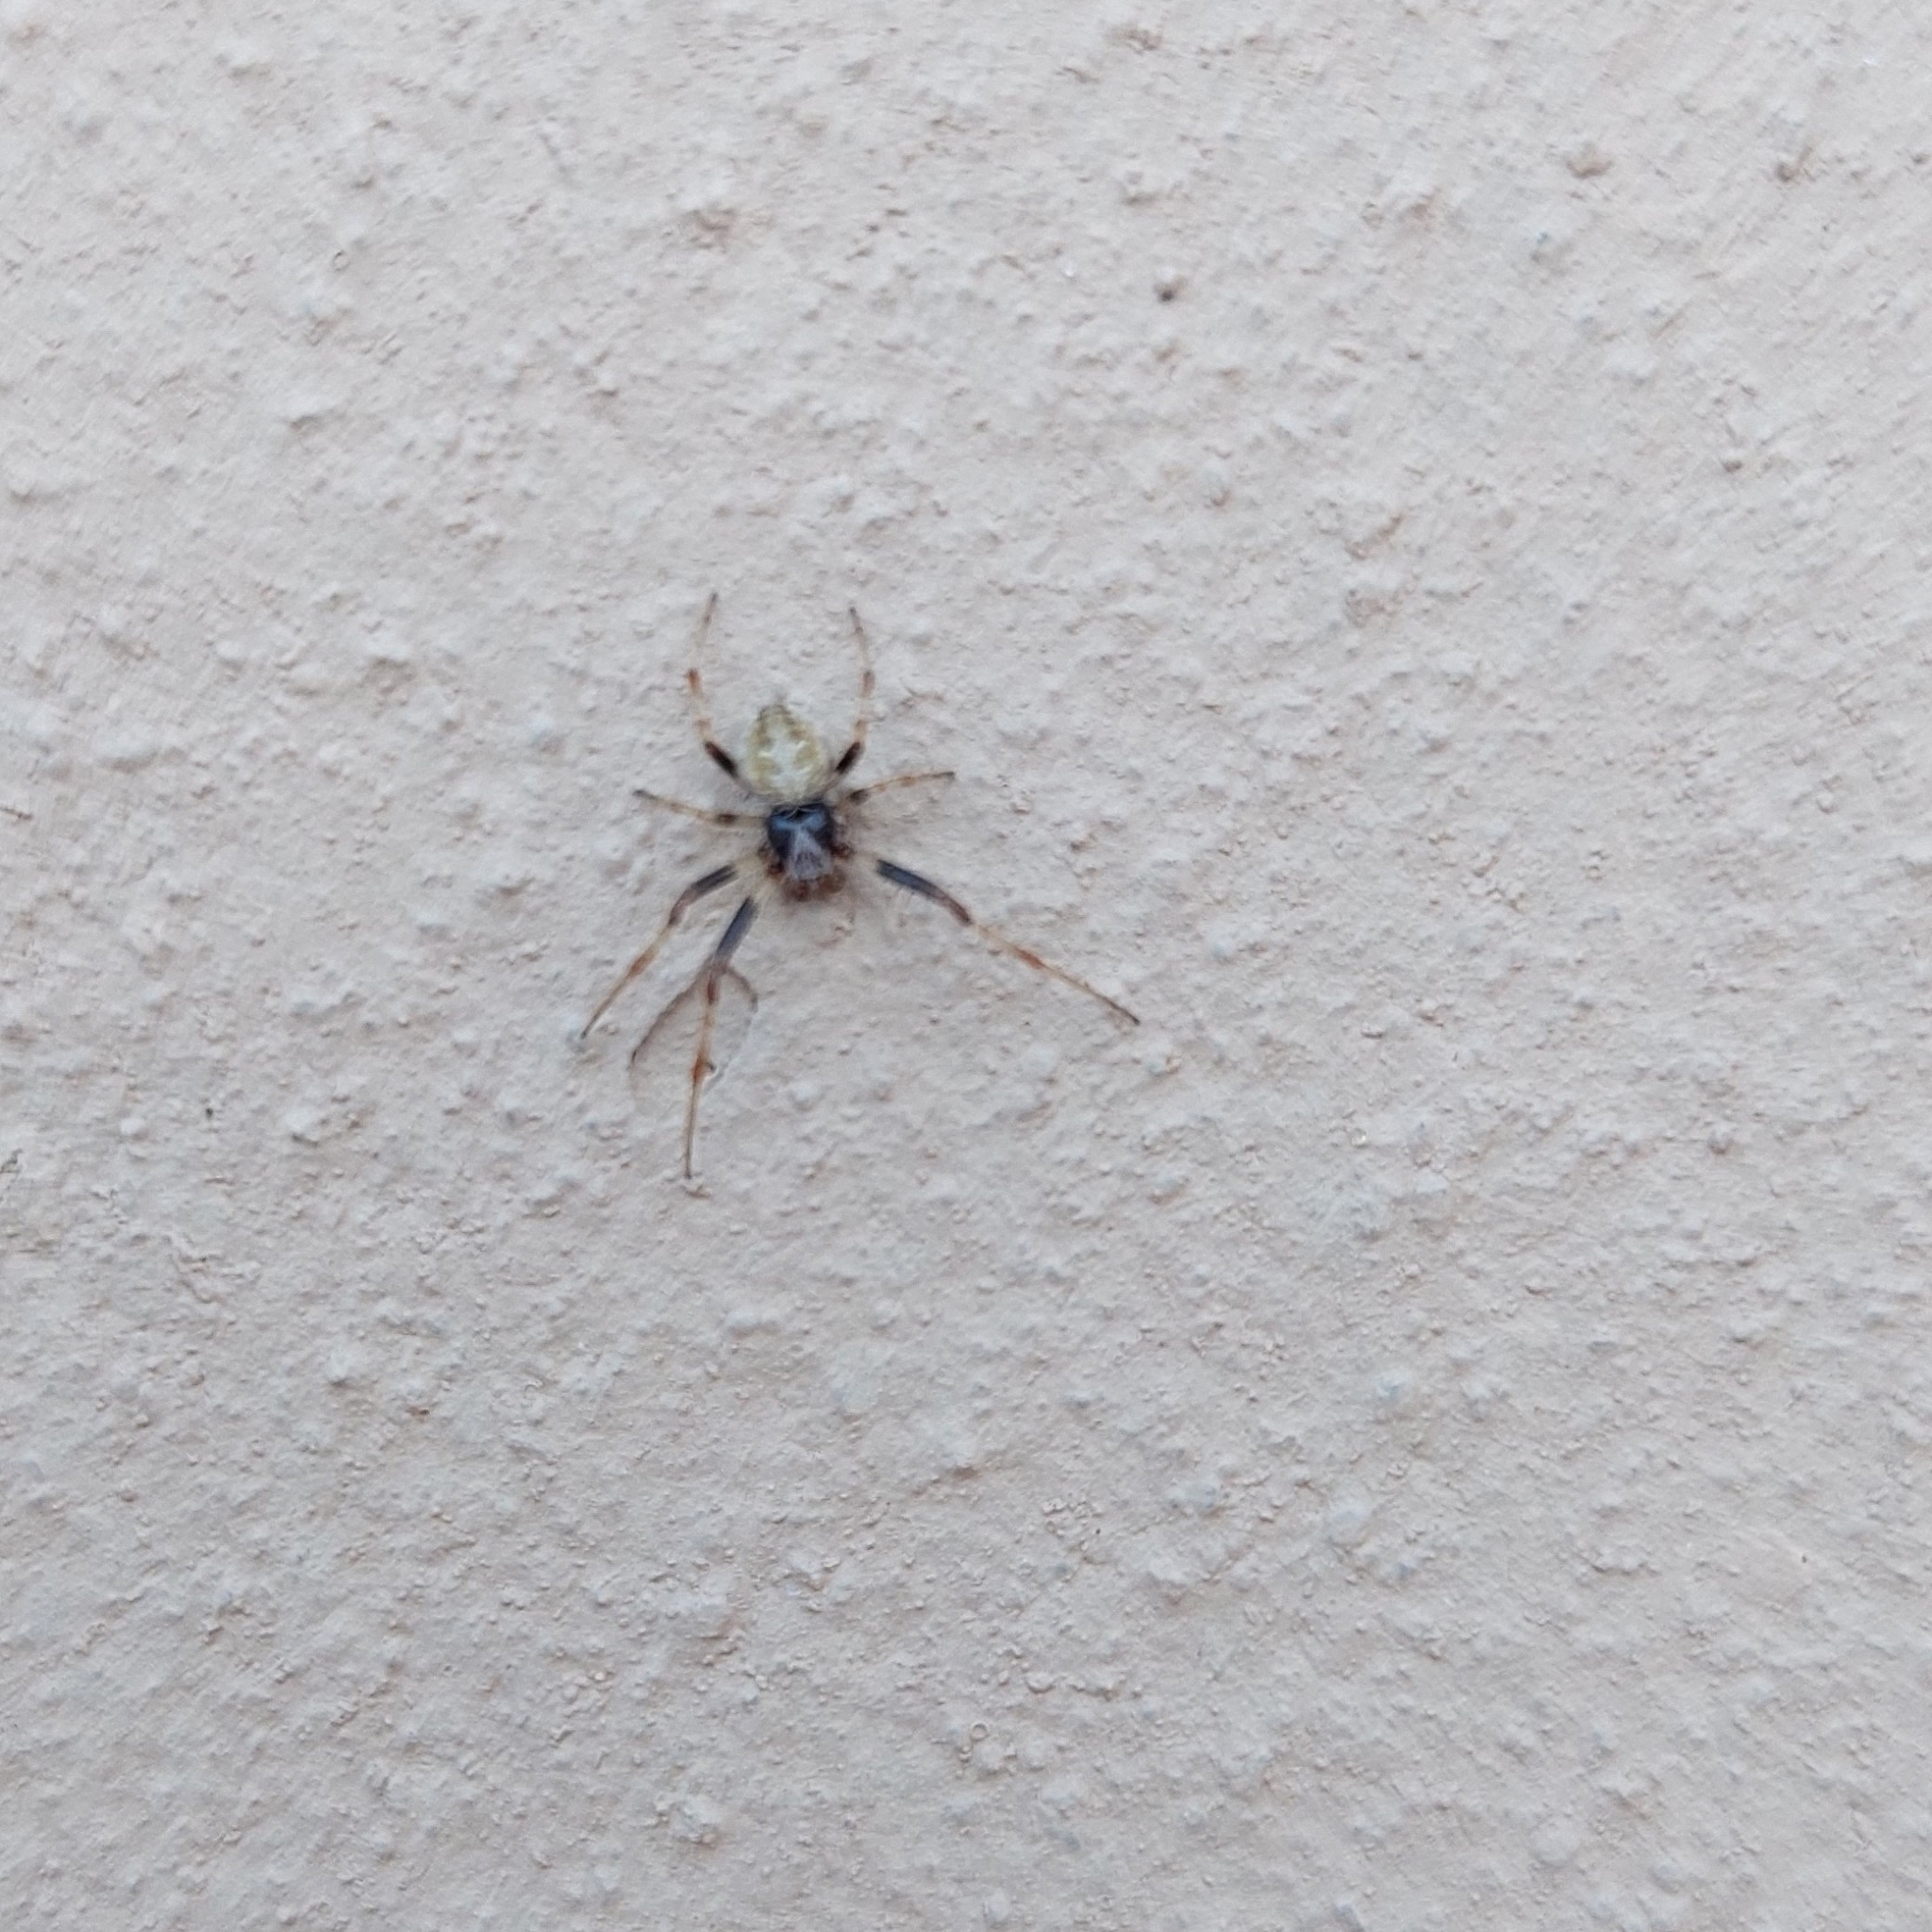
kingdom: Animalia
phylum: Arthropoda
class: Arachnida
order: Araneae
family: Araneidae
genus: Metepeira
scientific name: Metepeira
